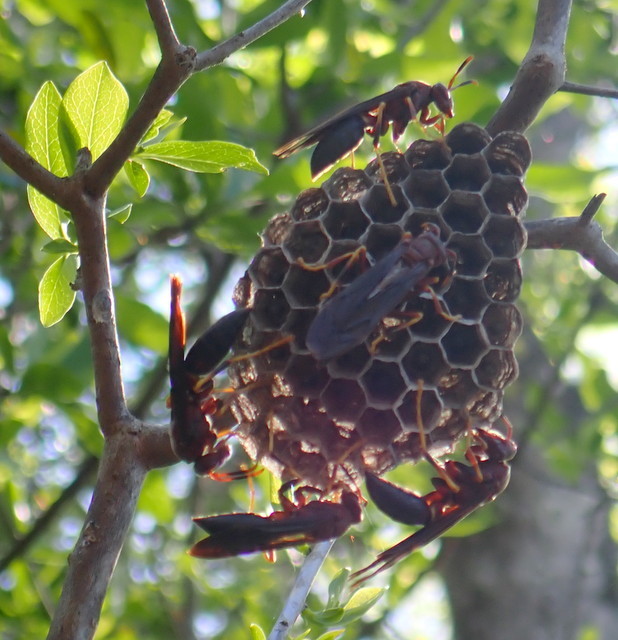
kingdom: Animalia
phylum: Arthropoda
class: Insecta
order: Hymenoptera
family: Eumenidae
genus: Polistes
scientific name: Polistes annularis
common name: Ringed paper wasp
